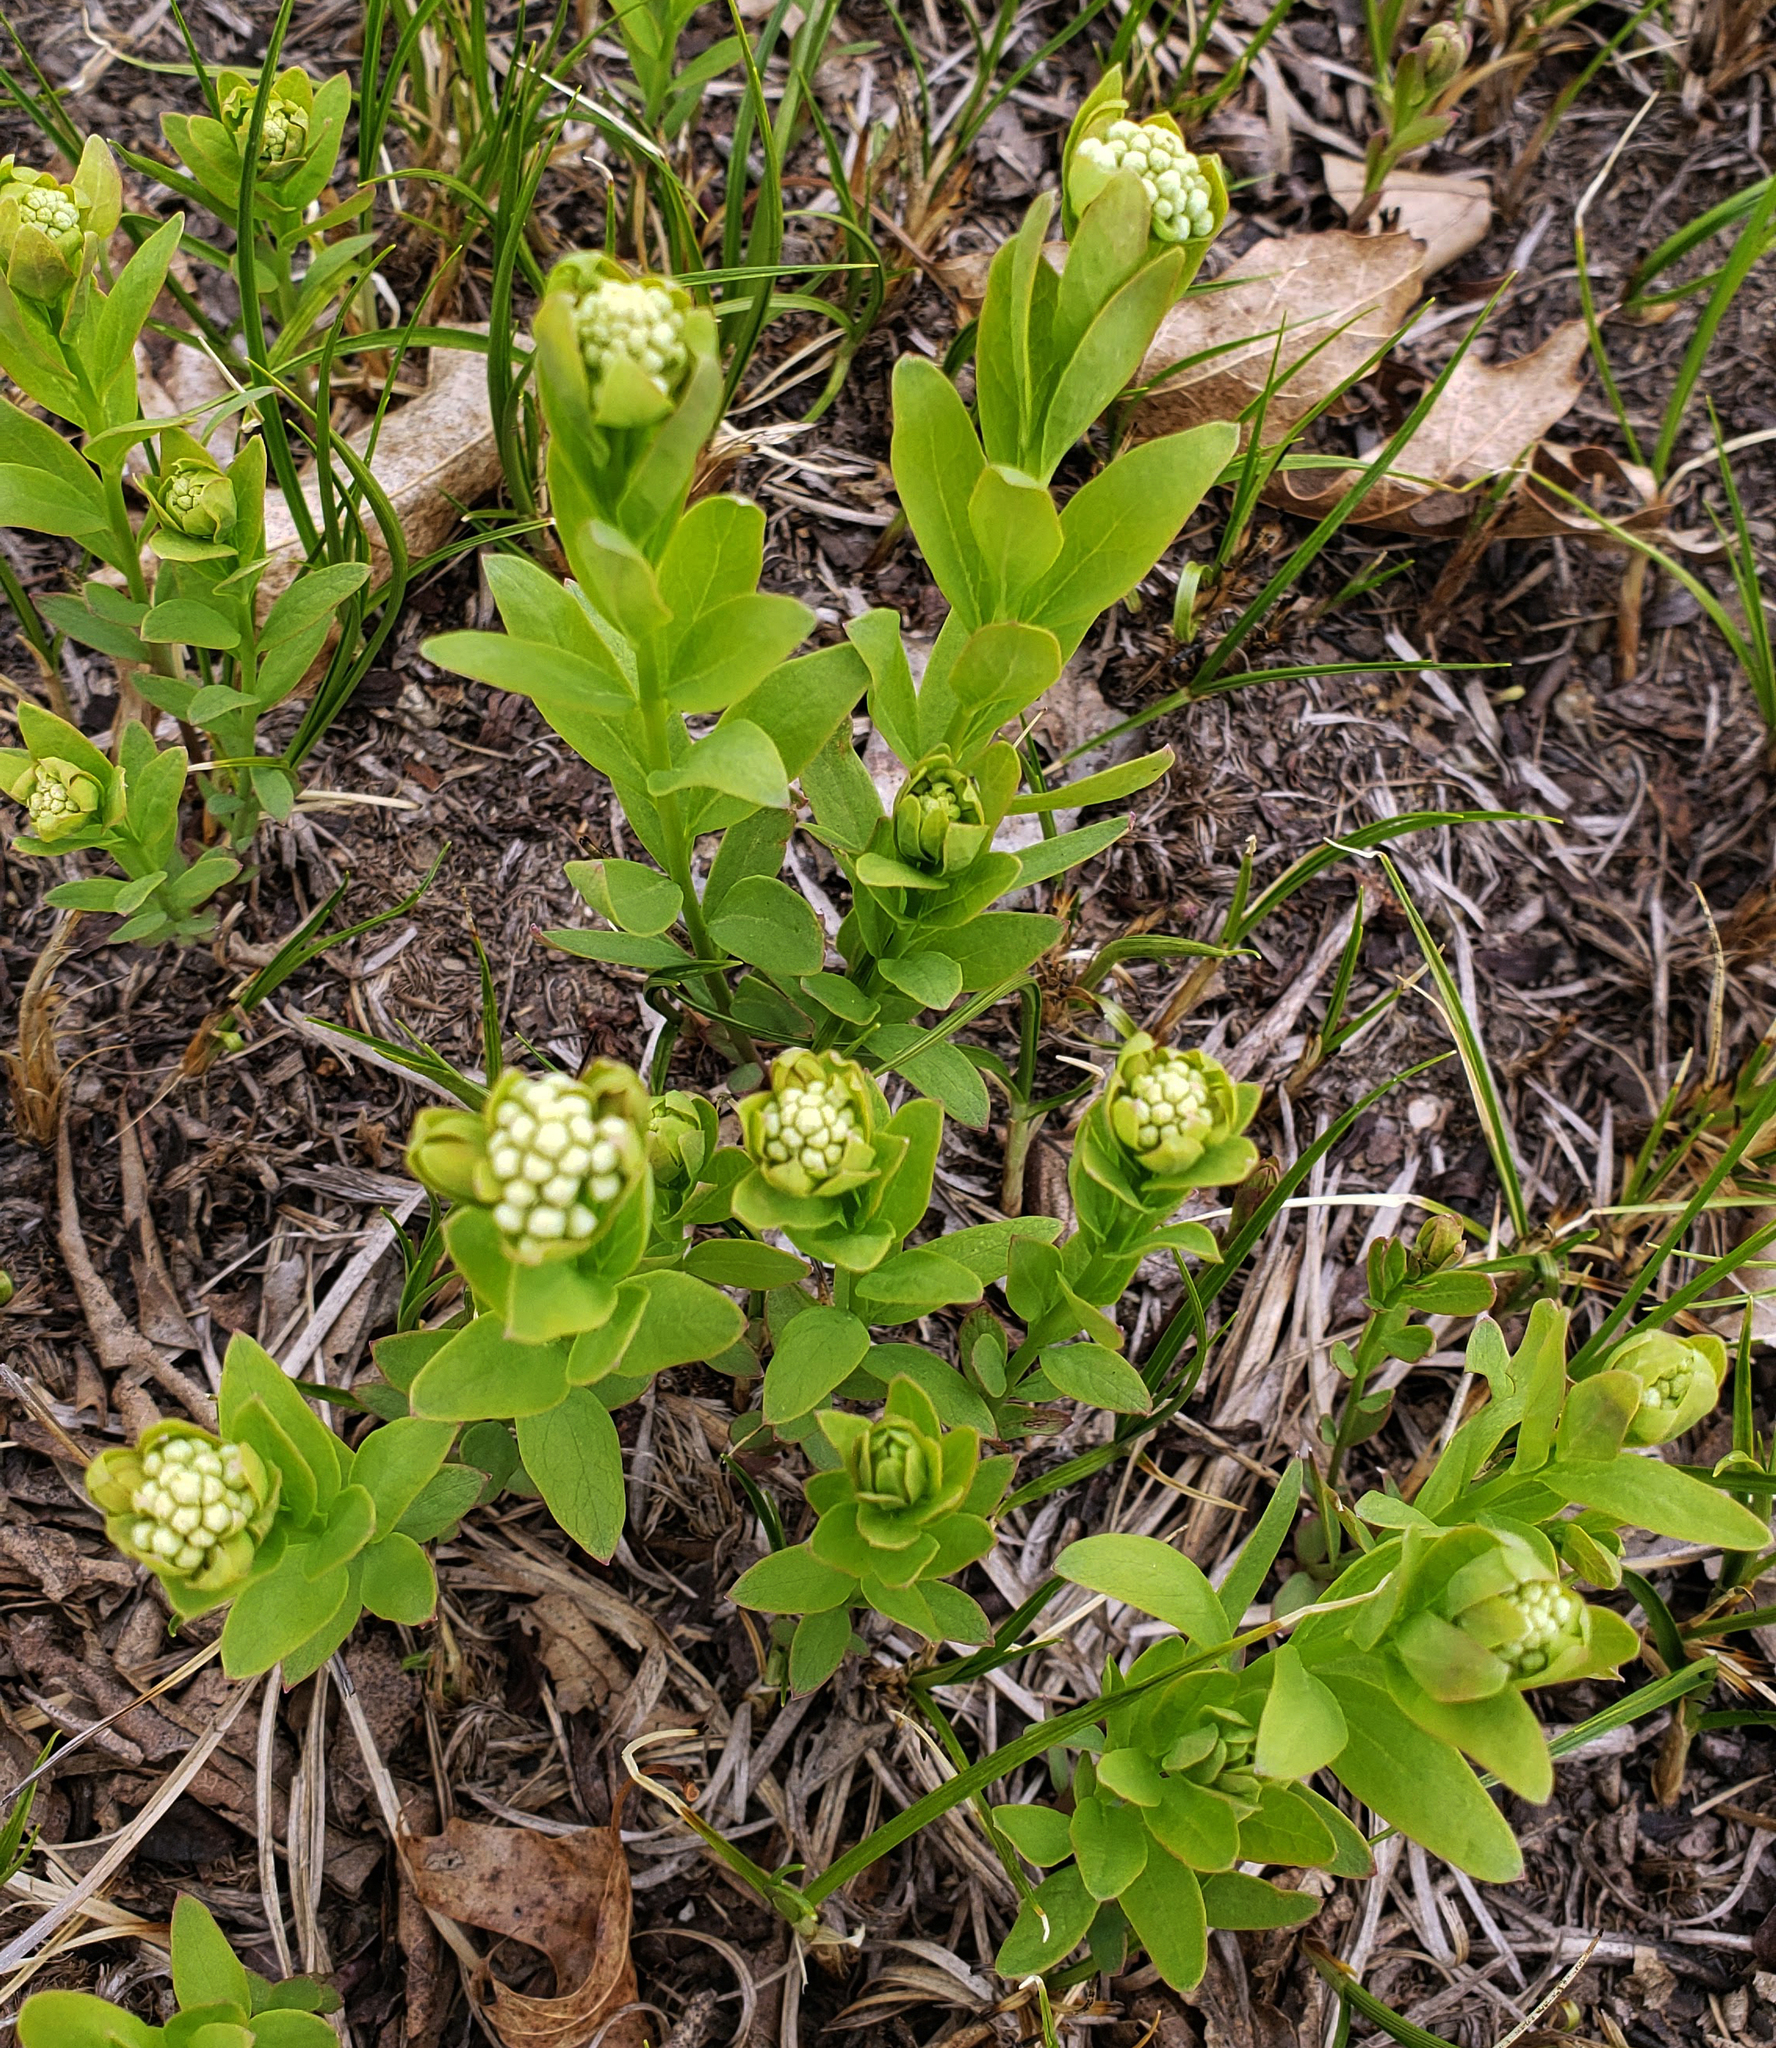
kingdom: Plantae
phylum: Tracheophyta
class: Magnoliopsida
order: Santalales
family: Comandraceae
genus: Comandra
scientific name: Comandra umbellata
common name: Bastard toadflax
